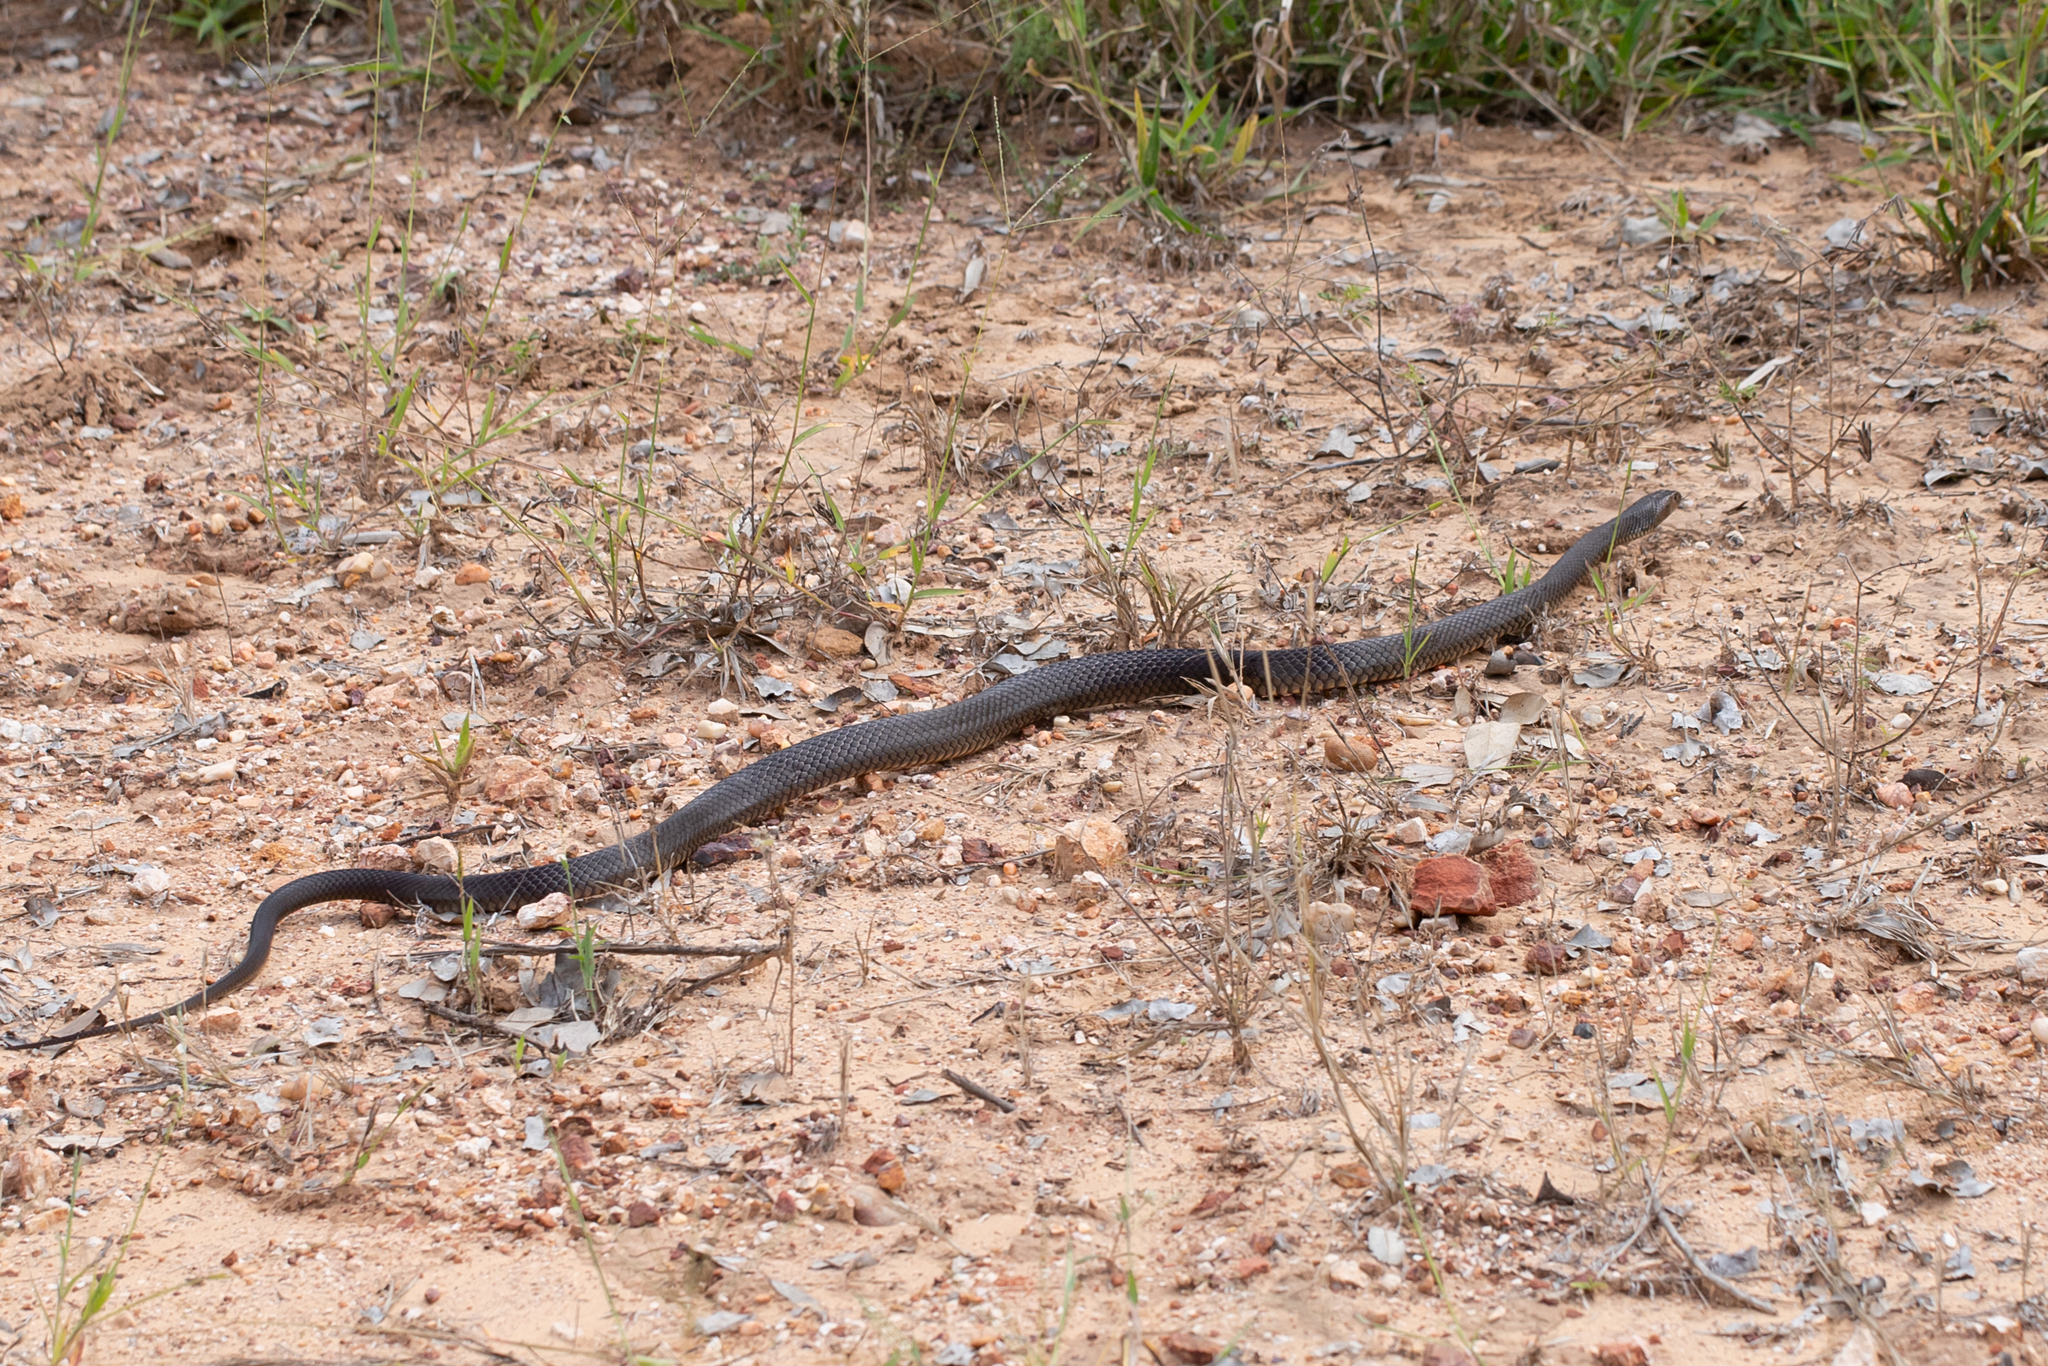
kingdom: Animalia
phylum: Chordata
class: Squamata
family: Elapidae
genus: Pseudonaja
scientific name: Pseudonaja textilis
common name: Eastern brown snake
